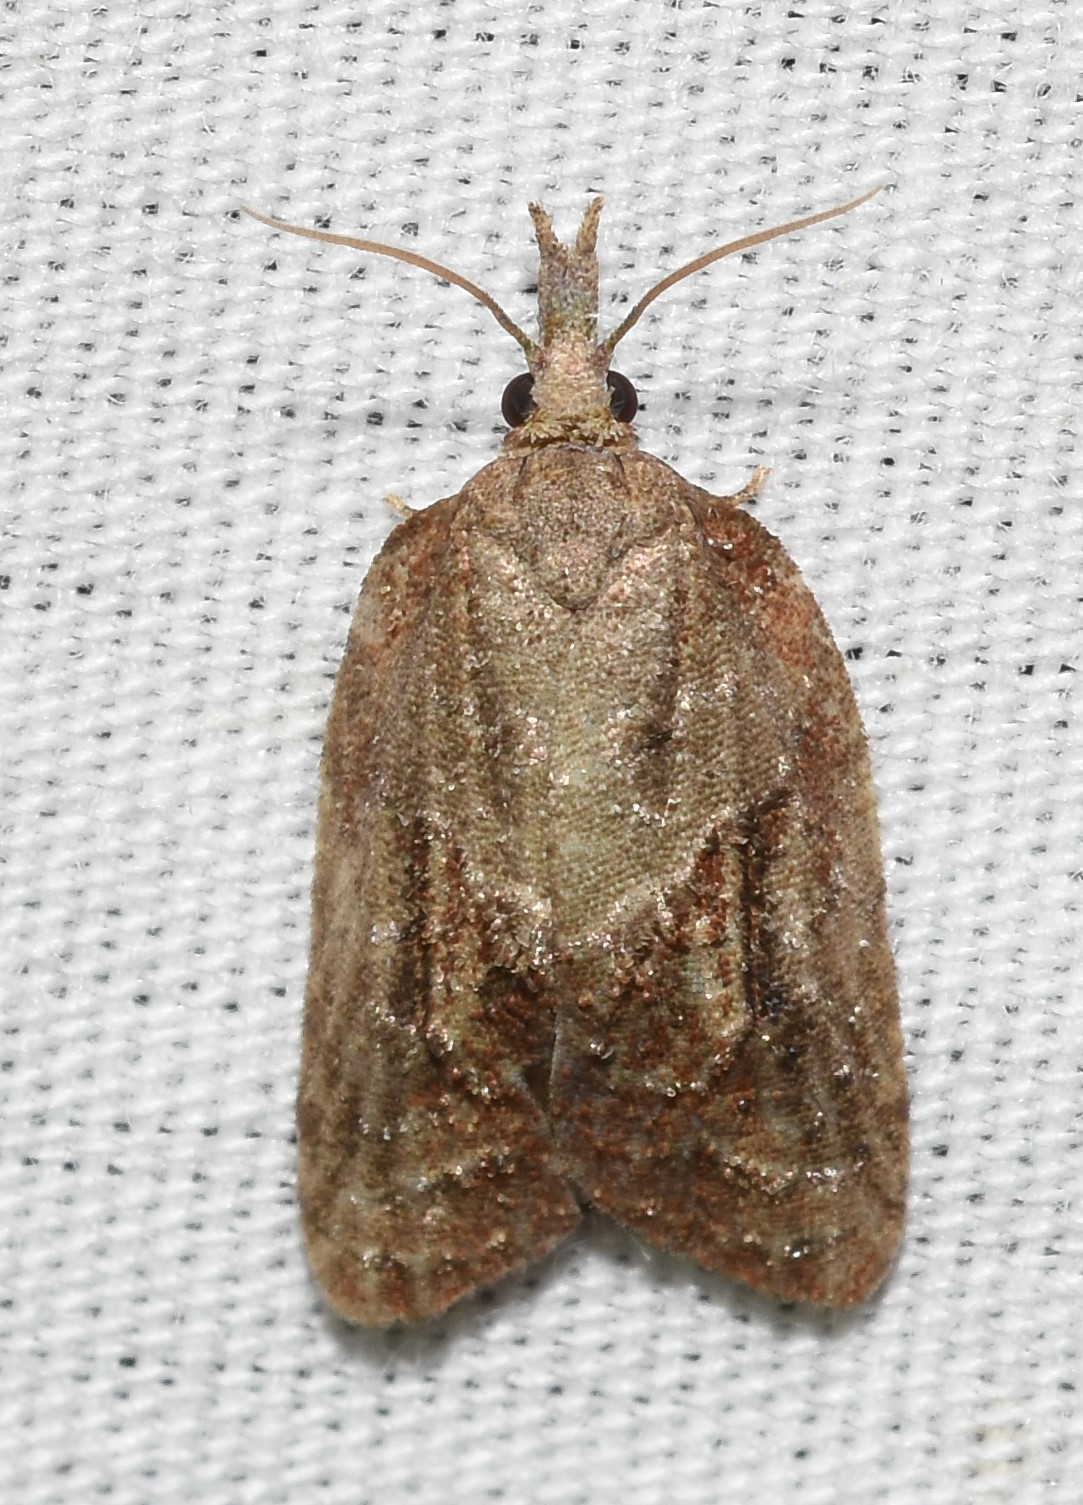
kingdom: Animalia
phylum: Arthropoda
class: Insecta
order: Lepidoptera
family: Tortricidae
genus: Platynota
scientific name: Platynota idaeusalis
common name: Tufted apple bud moth
